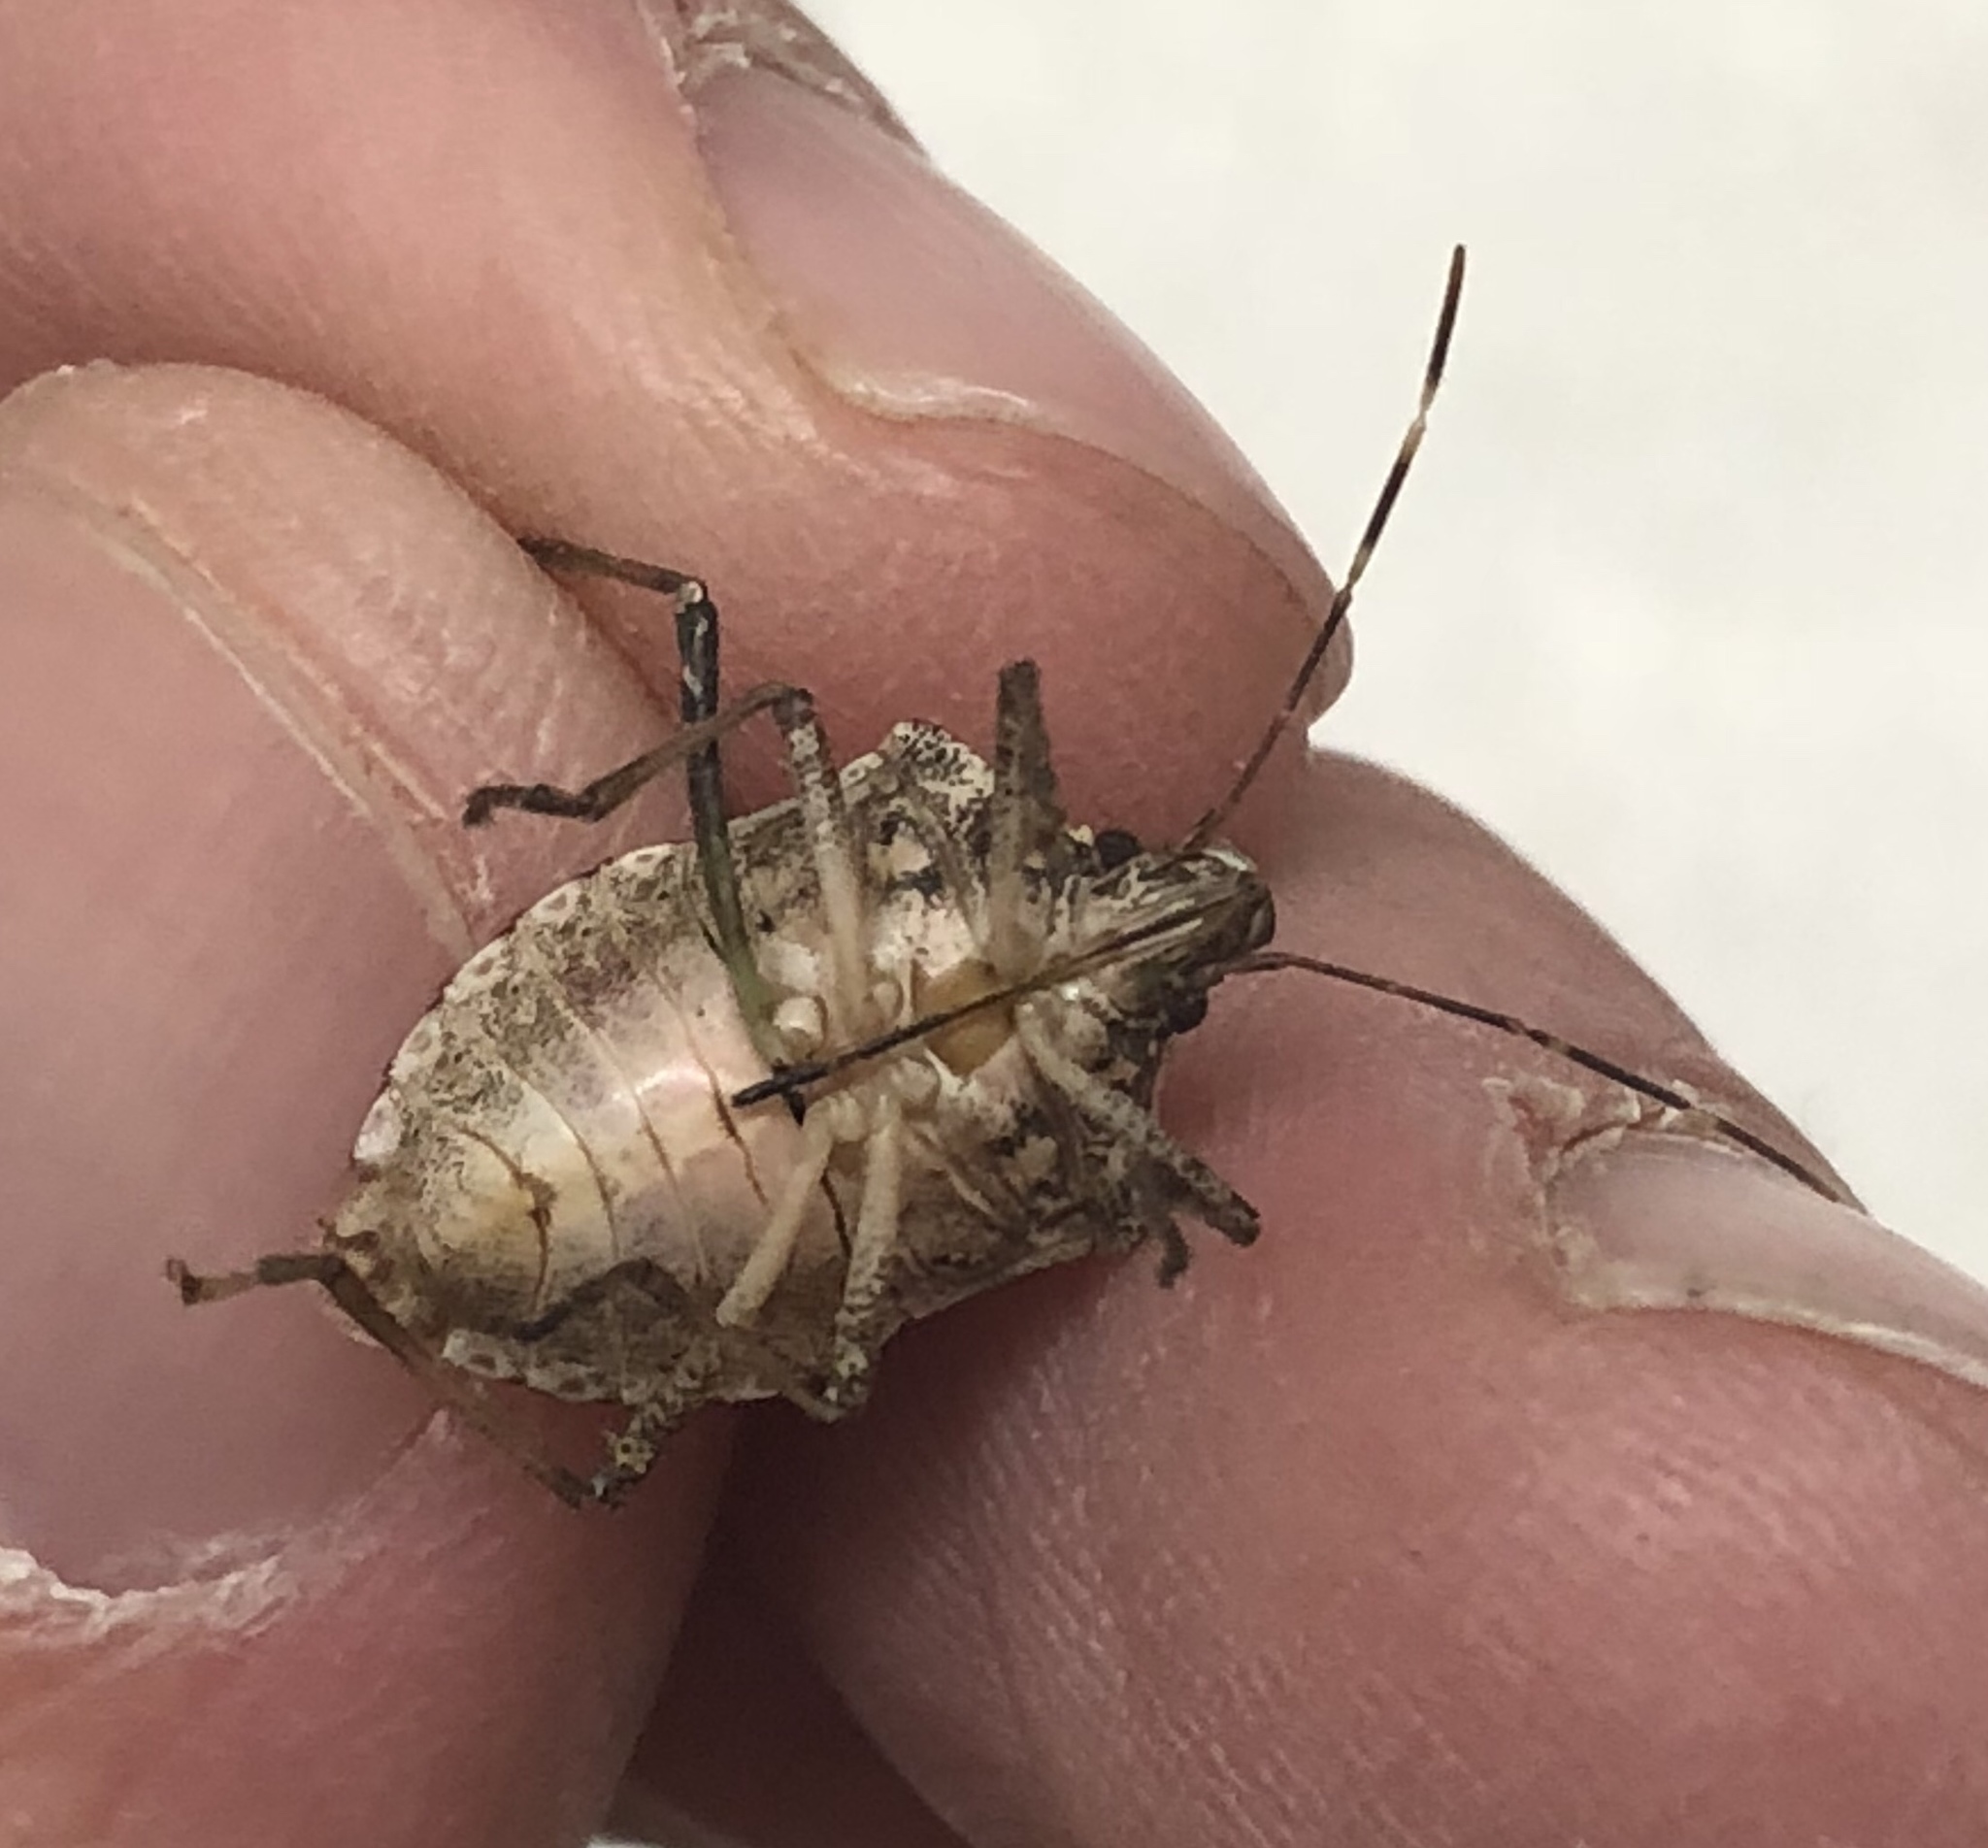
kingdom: Animalia
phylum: Arthropoda
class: Insecta
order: Hemiptera
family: Pentatomidae
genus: Halyomorpha
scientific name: Halyomorpha halys
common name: Brown marmorated stink bug
